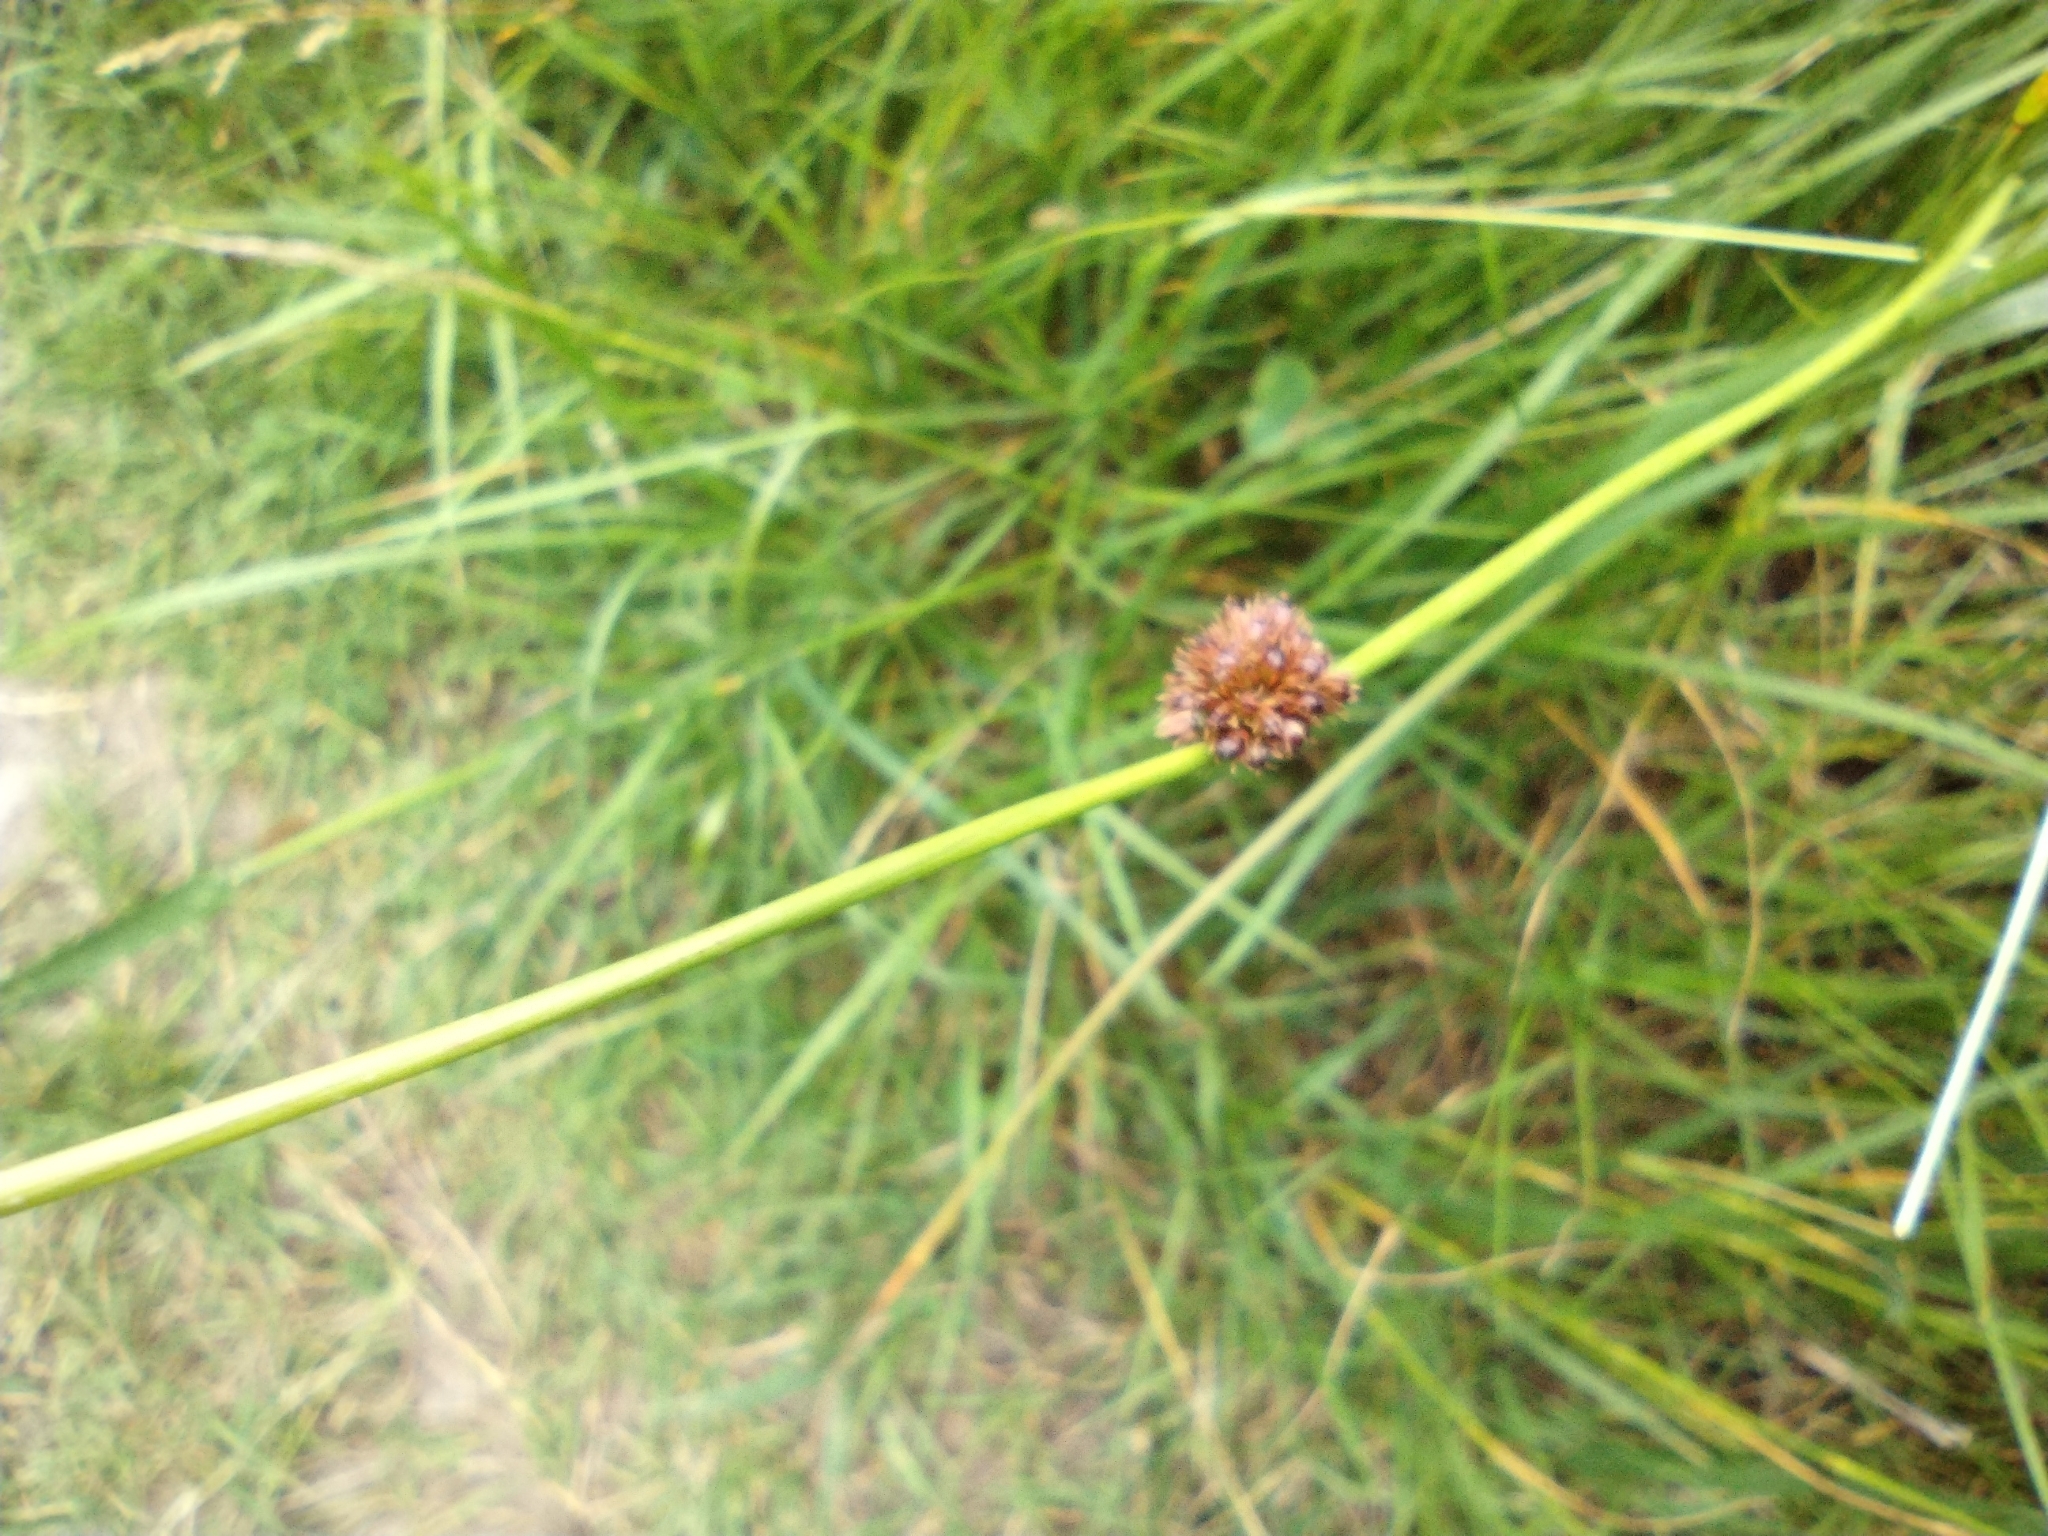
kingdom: Plantae
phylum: Tracheophyta
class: Liliopsida
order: Poales
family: Juncaceae
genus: Juncus
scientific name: Juncus conglomeratus
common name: Compact rush
